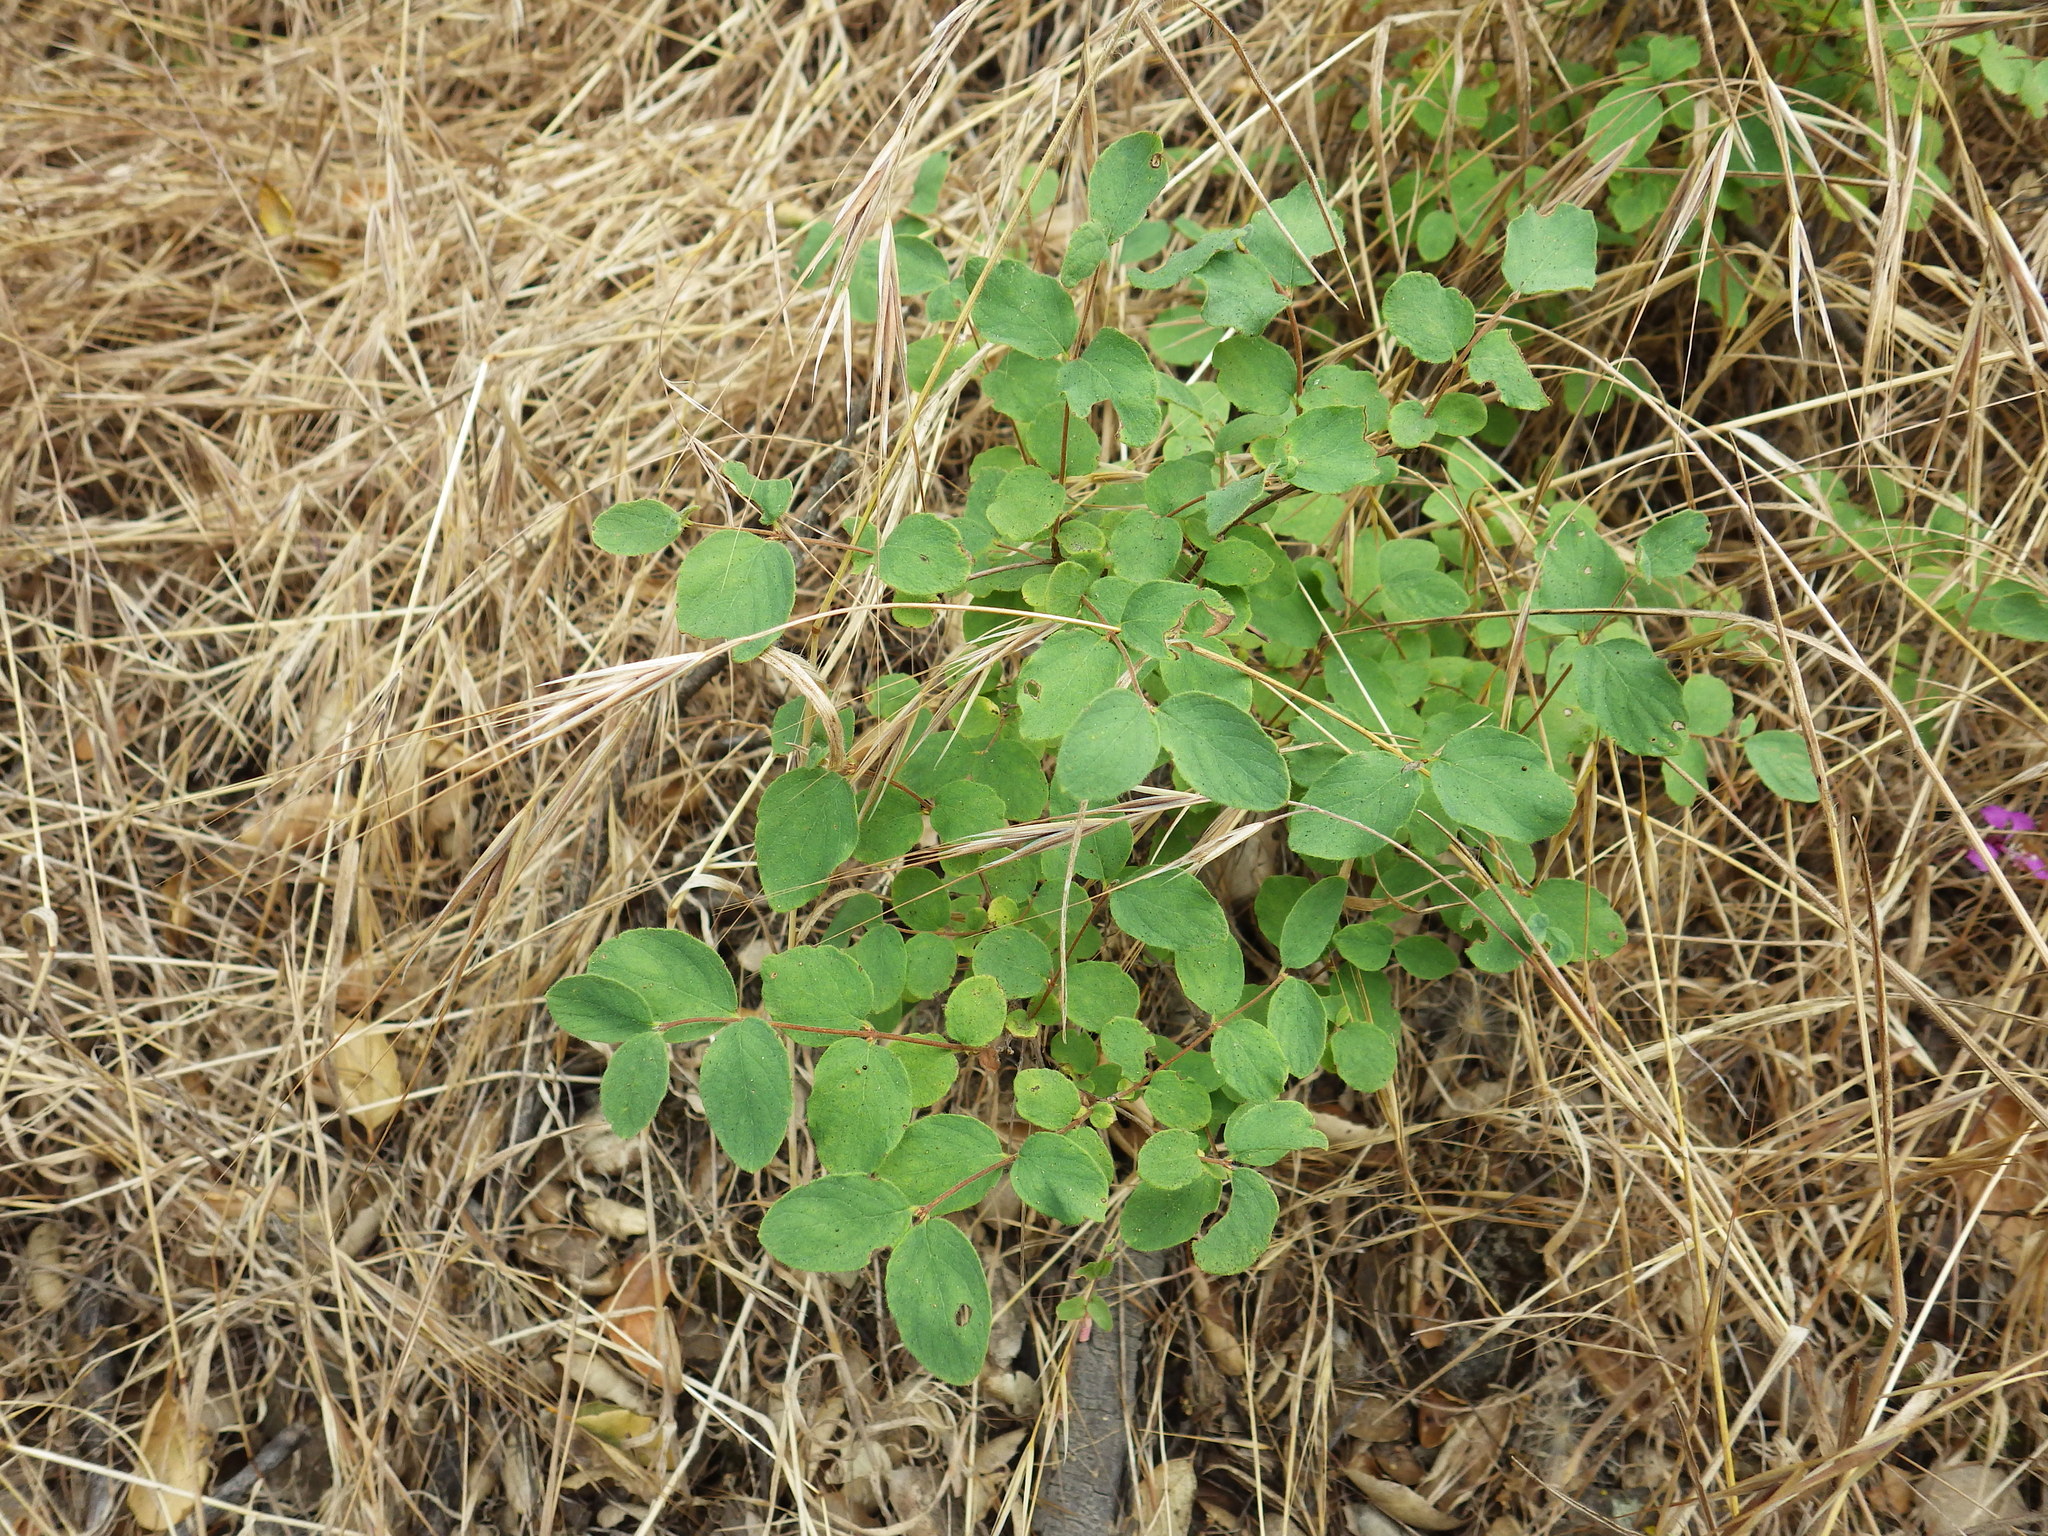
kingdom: Plantae
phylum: Tracheophyta
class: Magnoliopsida
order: Dipsacales
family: Caprifoliaceae
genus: Symphoricarpos
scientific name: Symphoricarpos mollis
